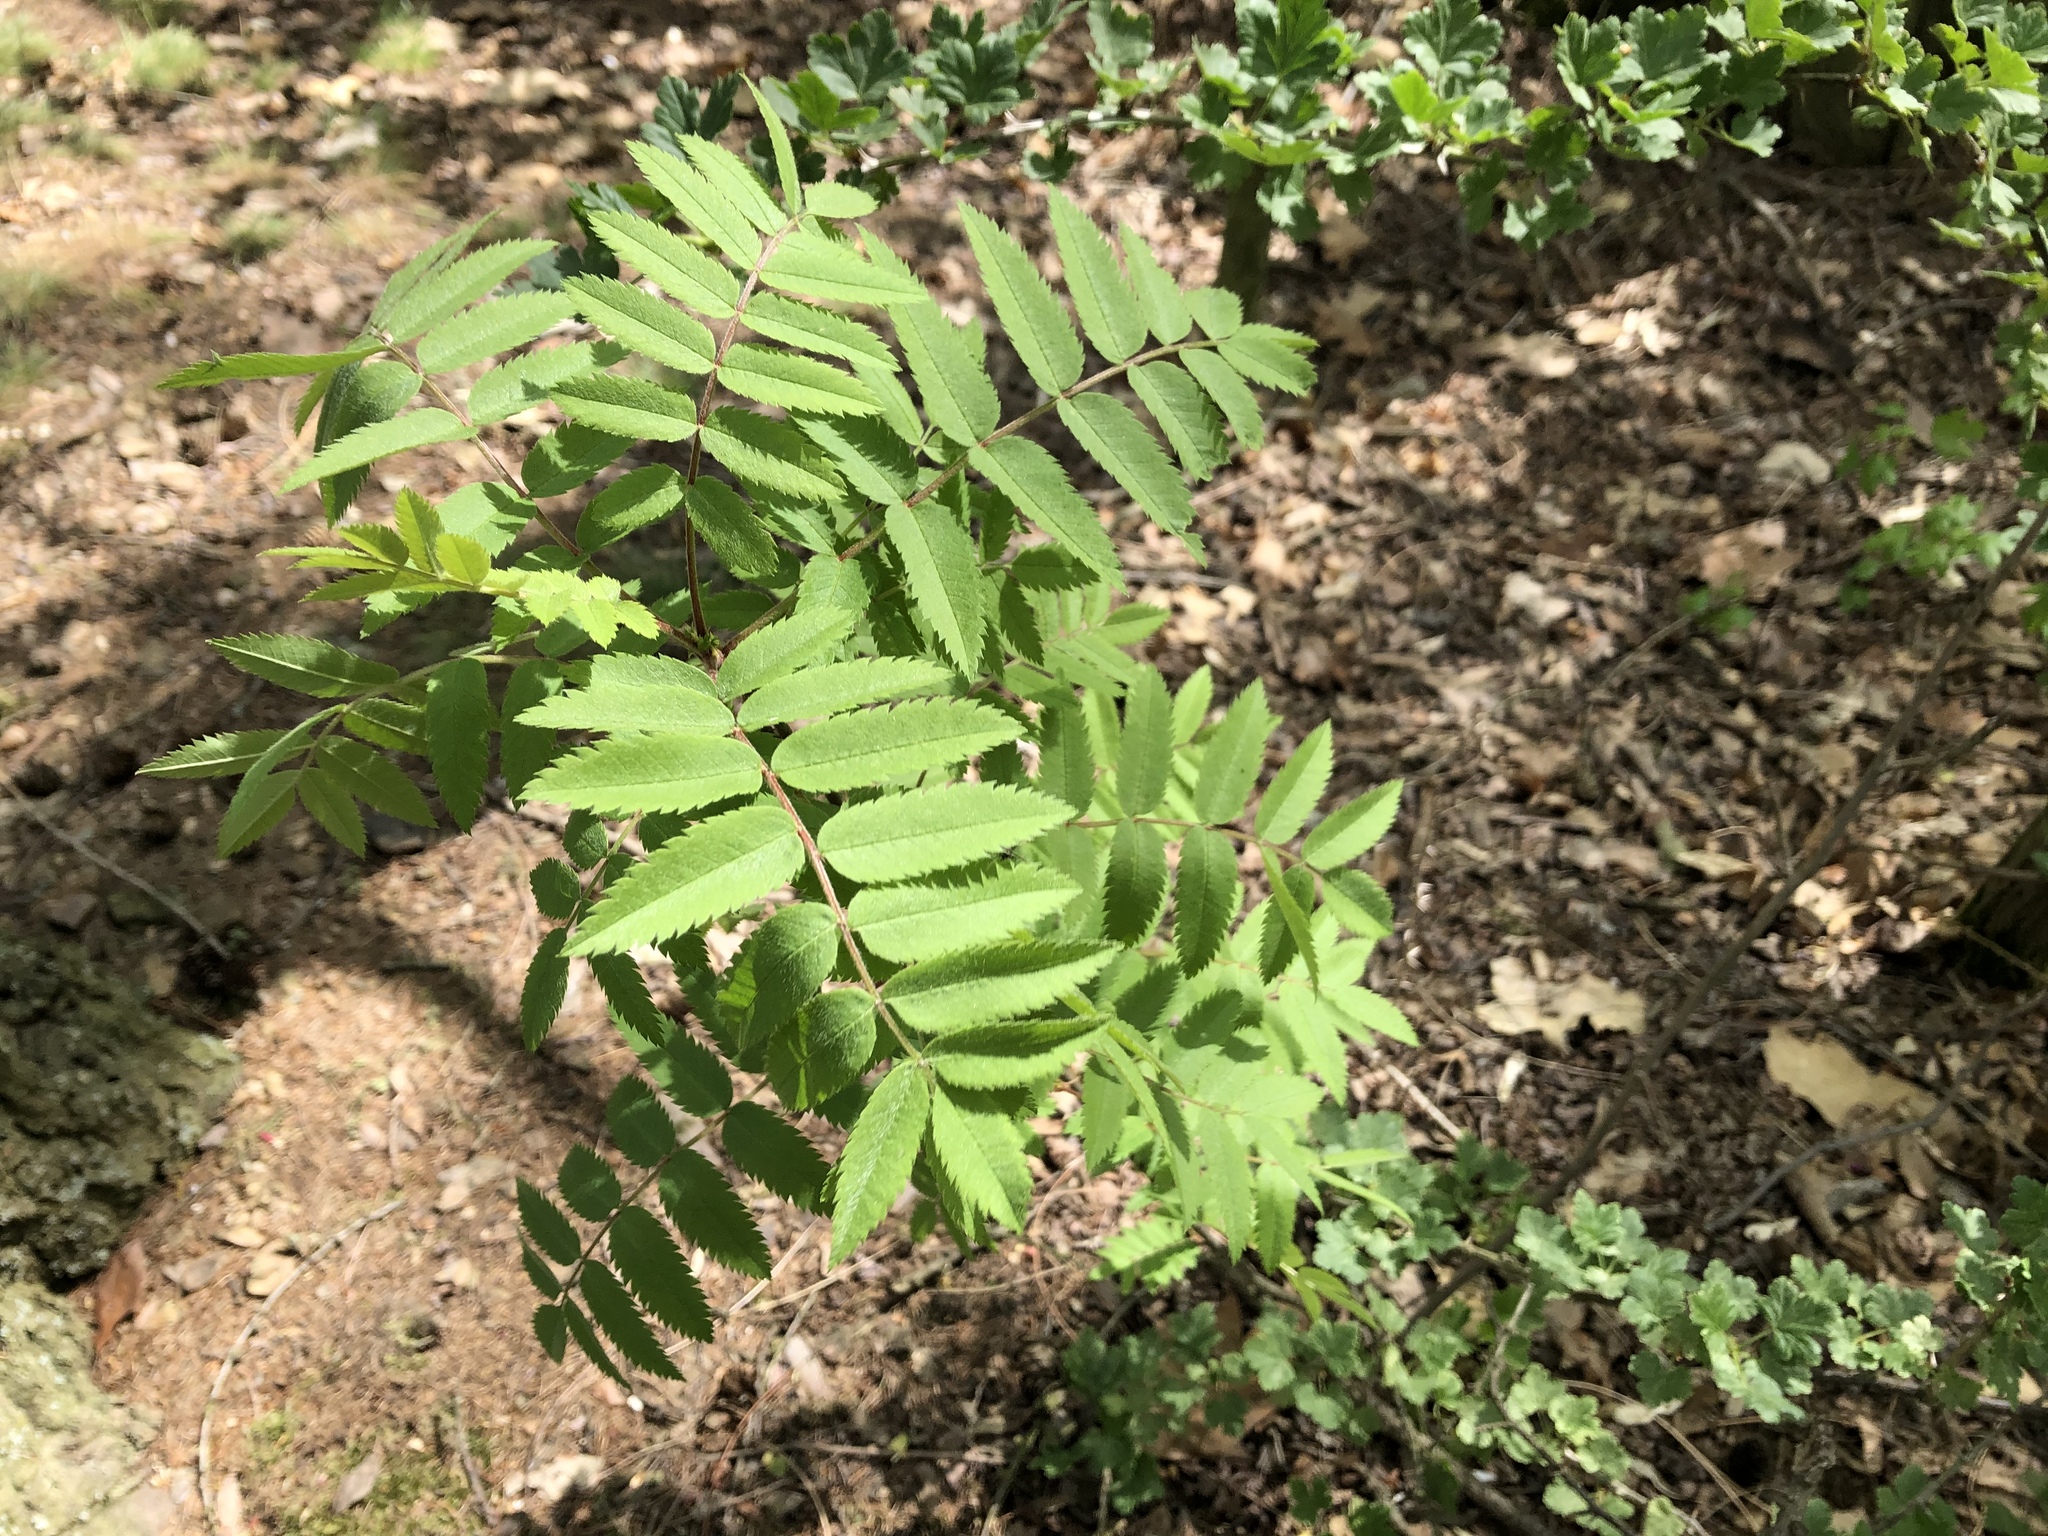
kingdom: Plantae
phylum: Tracheophyta
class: Magnoliopsida
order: Rosales
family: Rosaceae
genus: Sorbus
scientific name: Sorbus aucuparia
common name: Rowan
